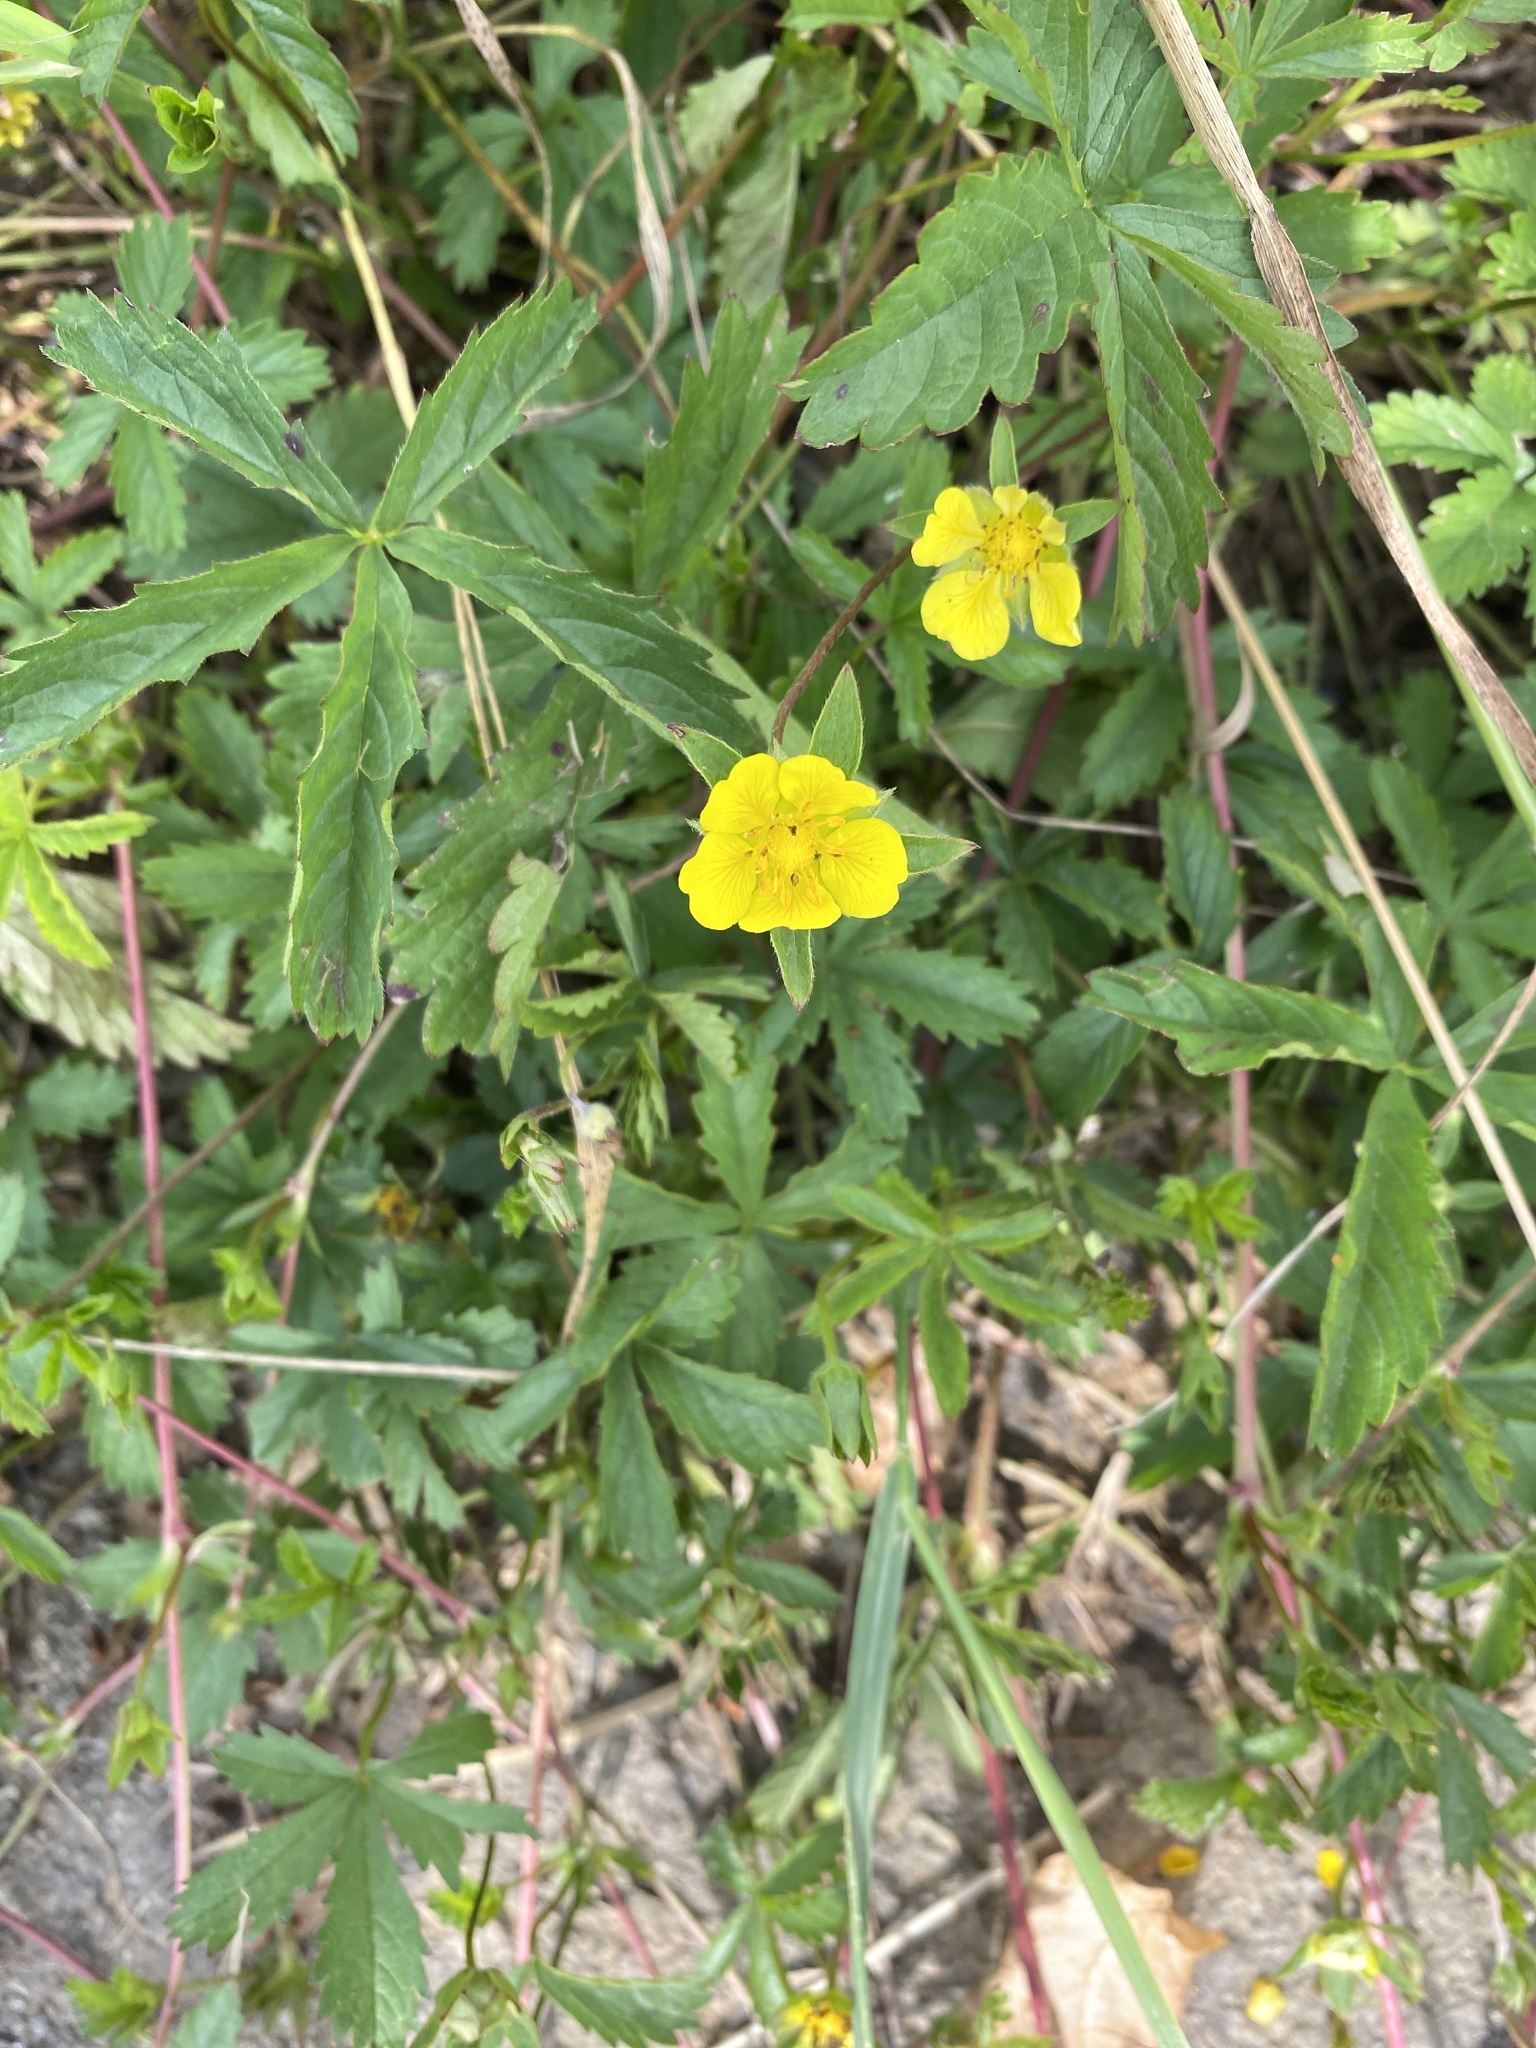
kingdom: Plantae
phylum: Tracheophyta
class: Magnoliopsida
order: Rosales
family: Rosaceae
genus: Potentilla
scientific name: Potentilla reptans
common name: Creeping cinquefoil
